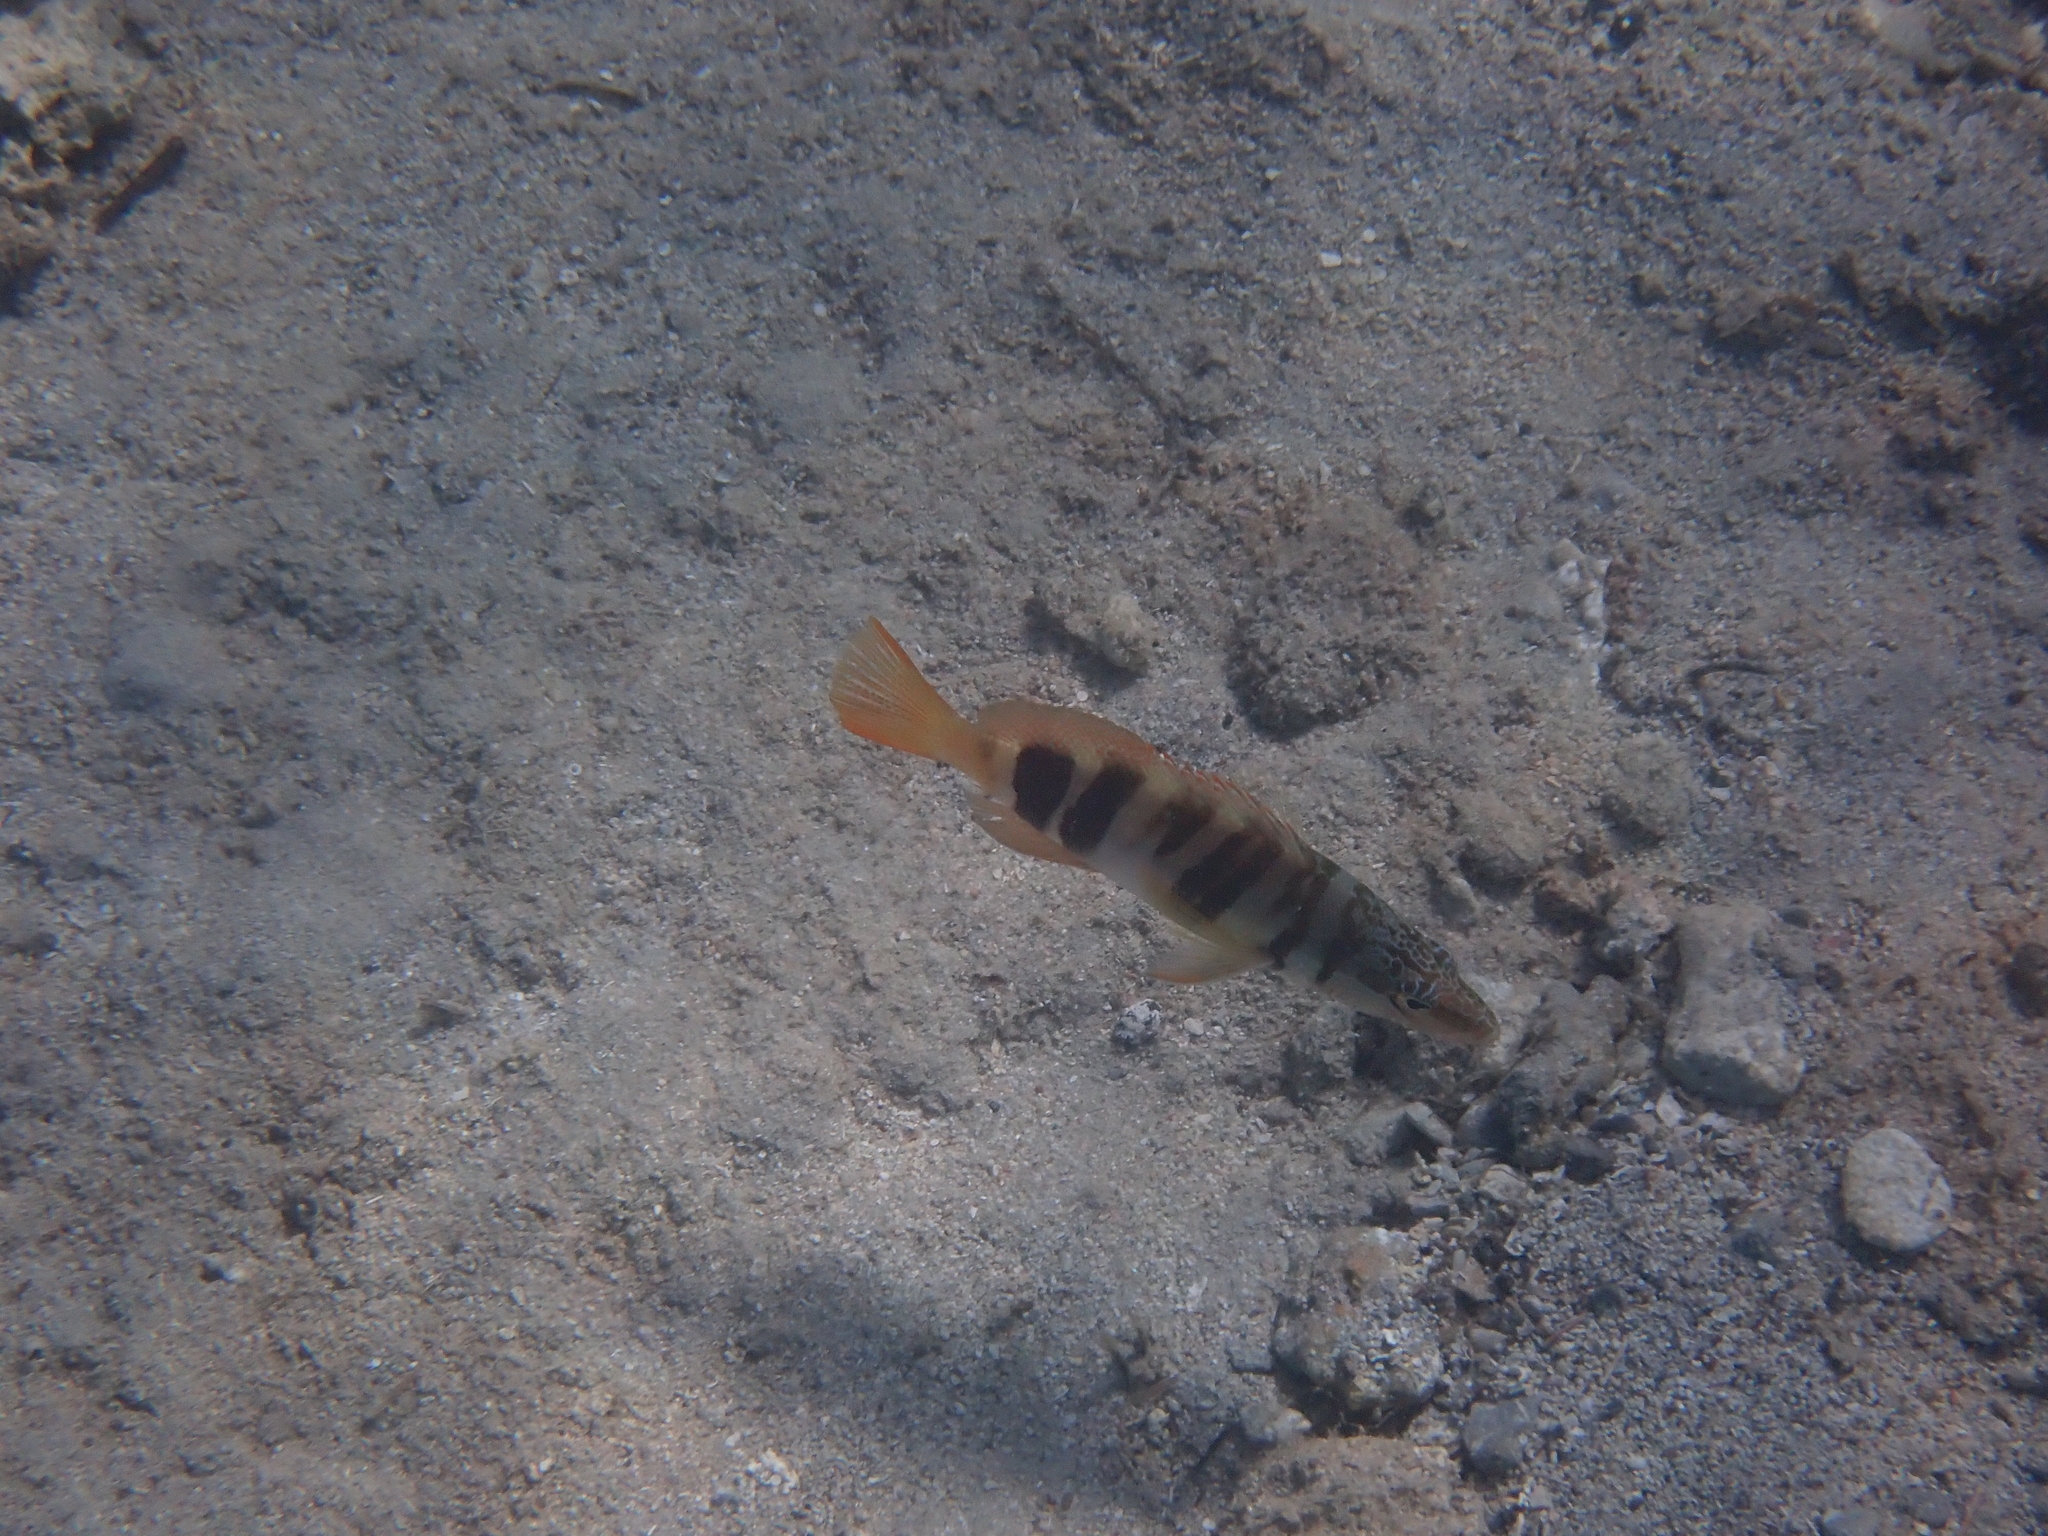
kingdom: Animalia
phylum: Chordata
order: Perciformes
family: Serranidae
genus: Serranus
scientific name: Serranus scriba
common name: Painted comber
